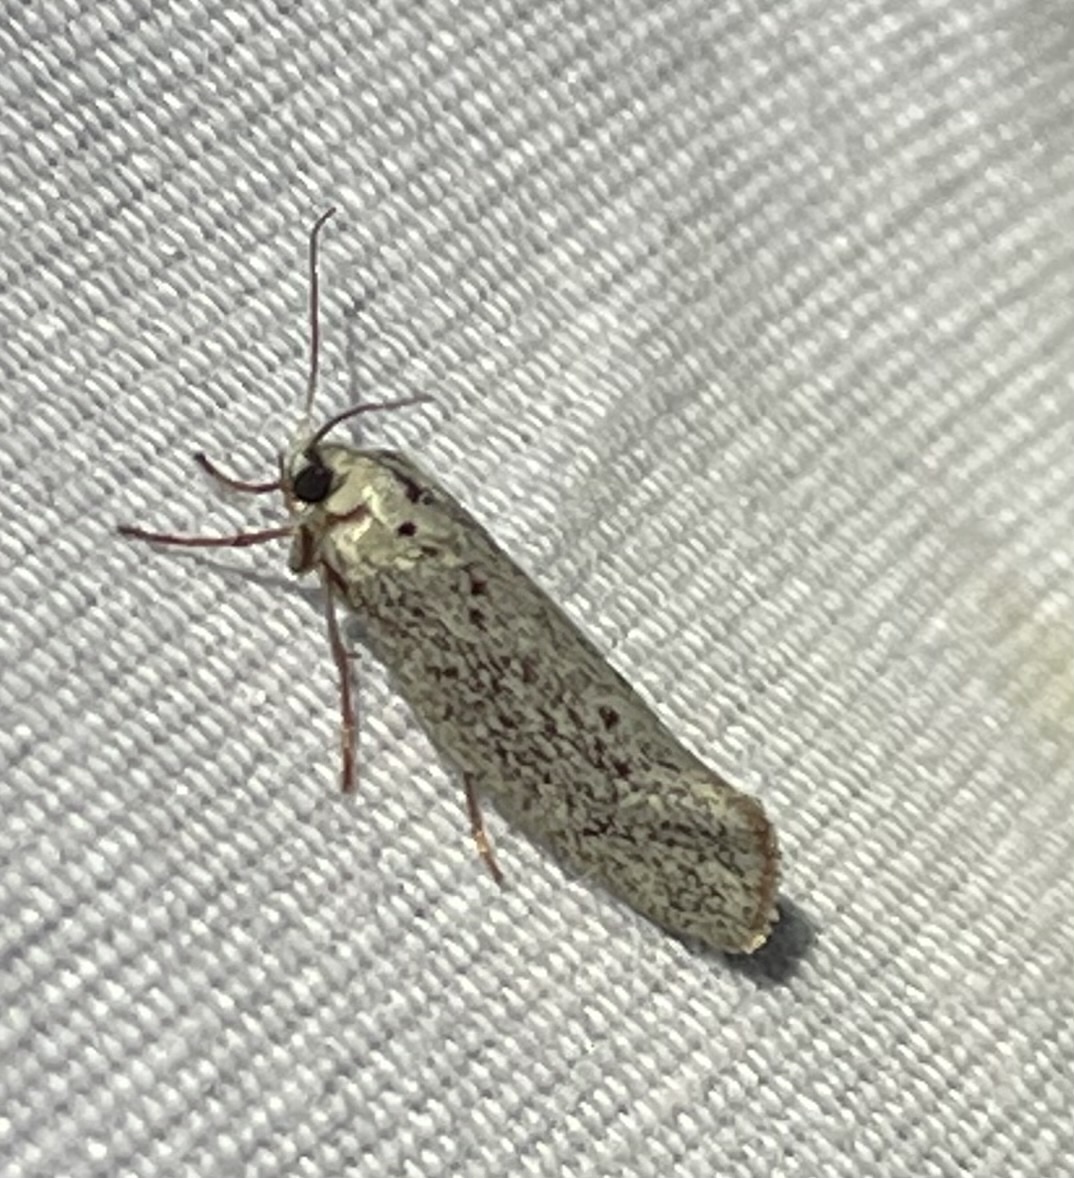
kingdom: Animalia
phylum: Arthropoda
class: Insecta
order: Lepidoptera
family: Lacturidae
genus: Lactura
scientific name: Lactura
